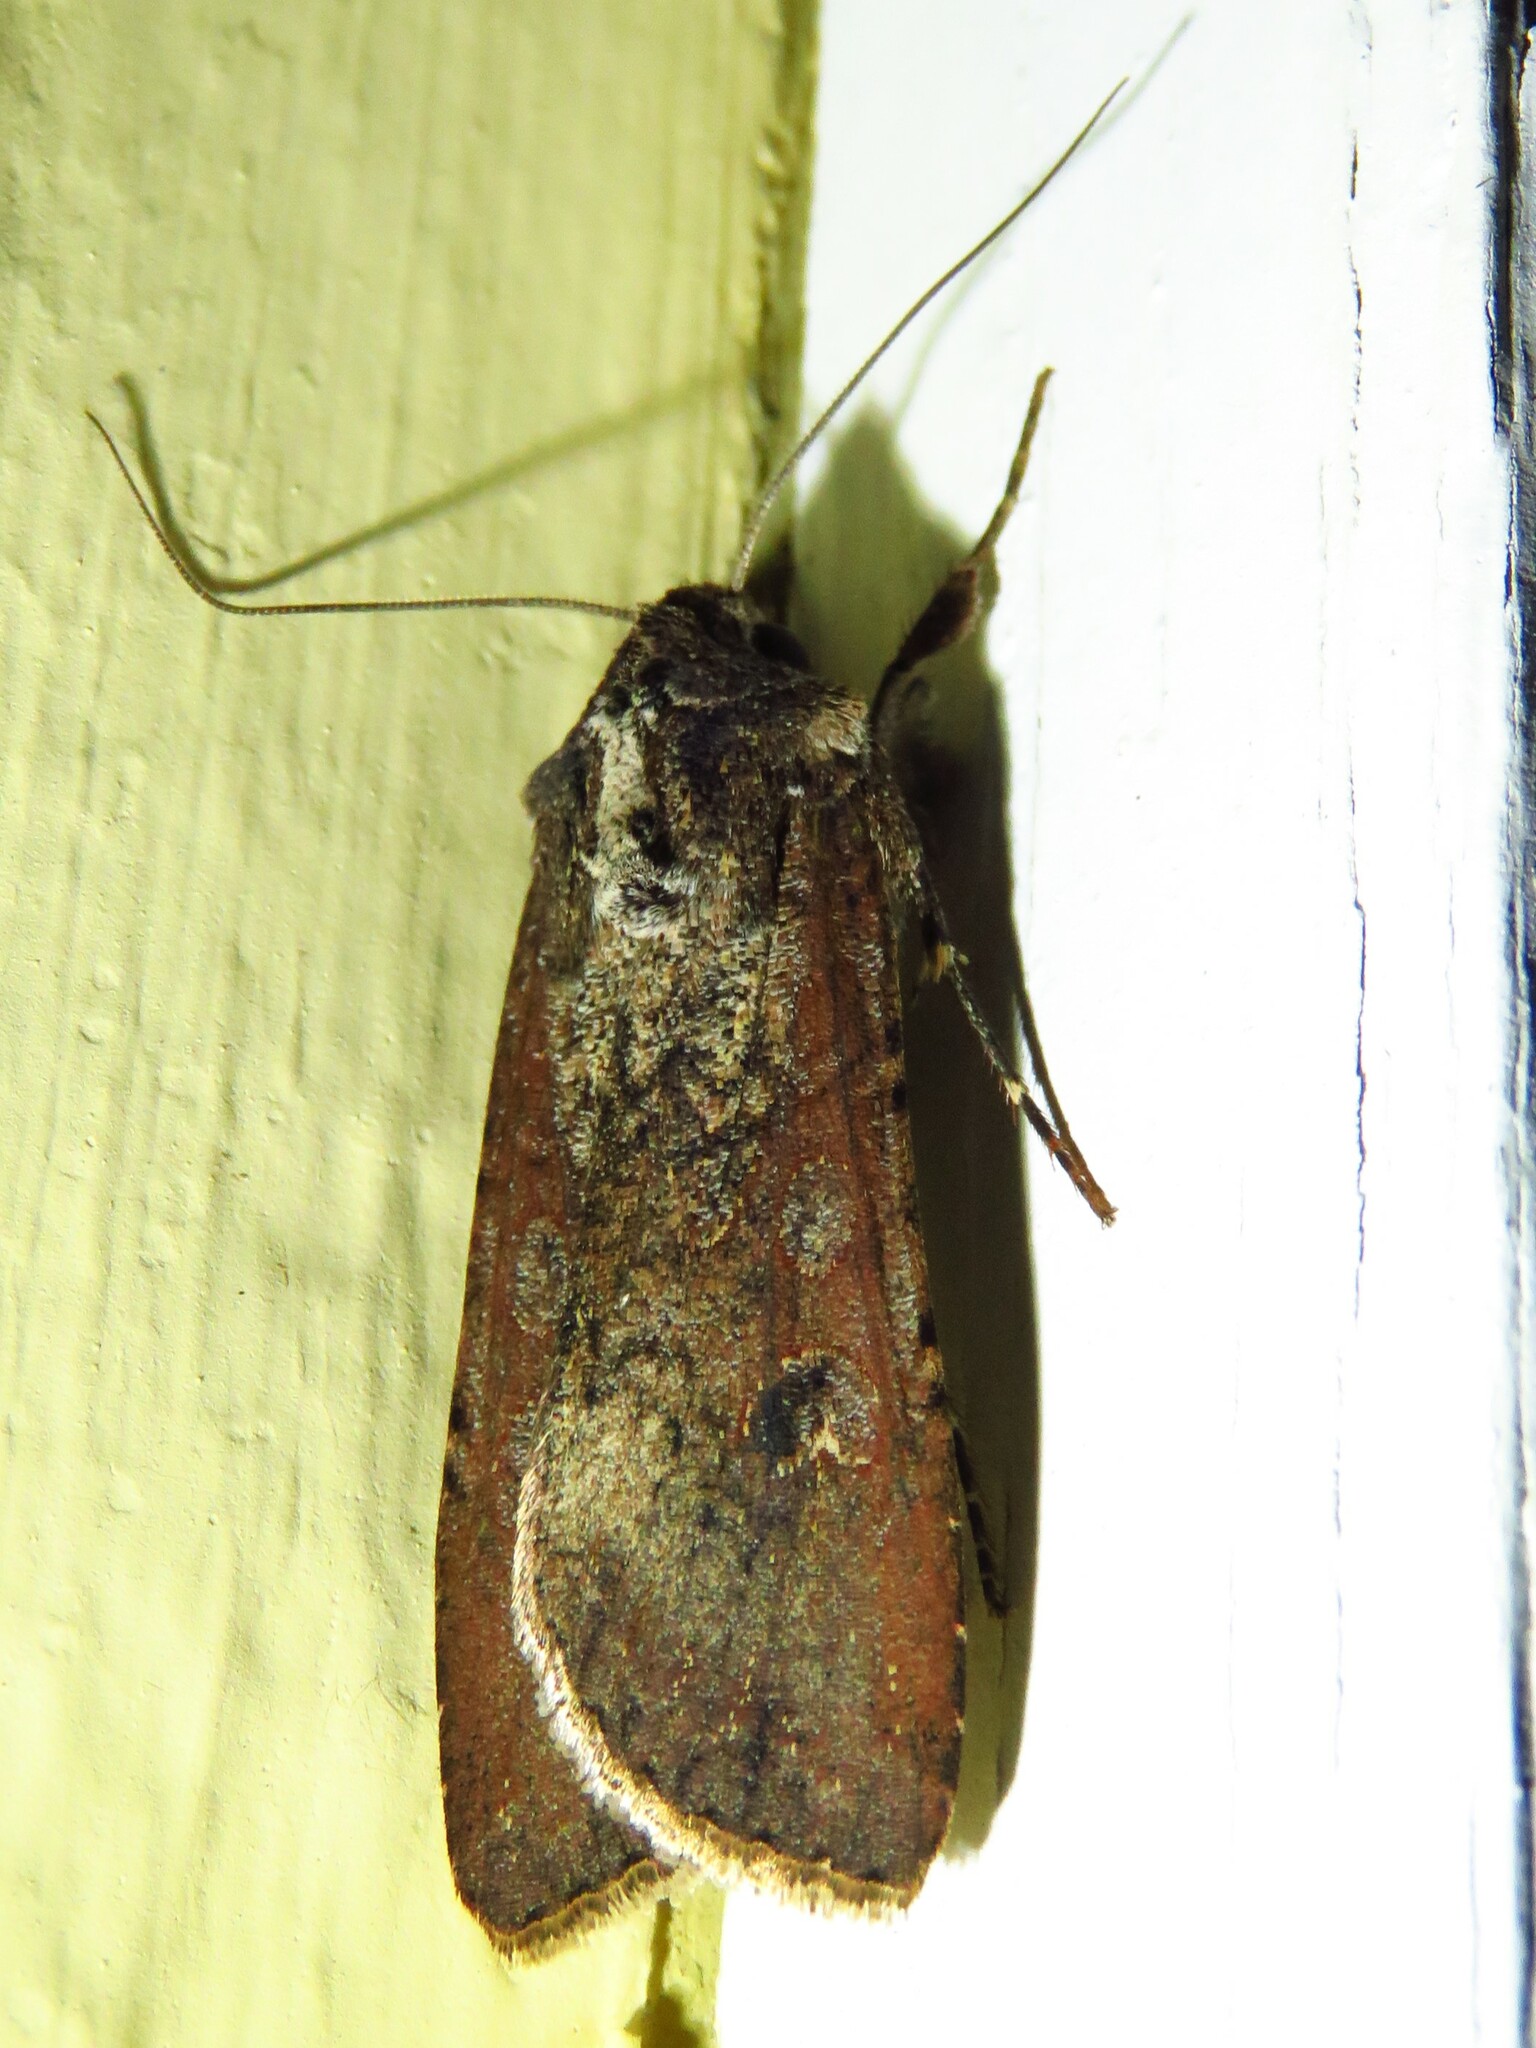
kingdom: Animalia
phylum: Arthropoda
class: Insecta
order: Lepidoptera
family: Noctuidae
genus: Peridroma
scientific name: Peridroma saucia
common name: Pearly underwing
